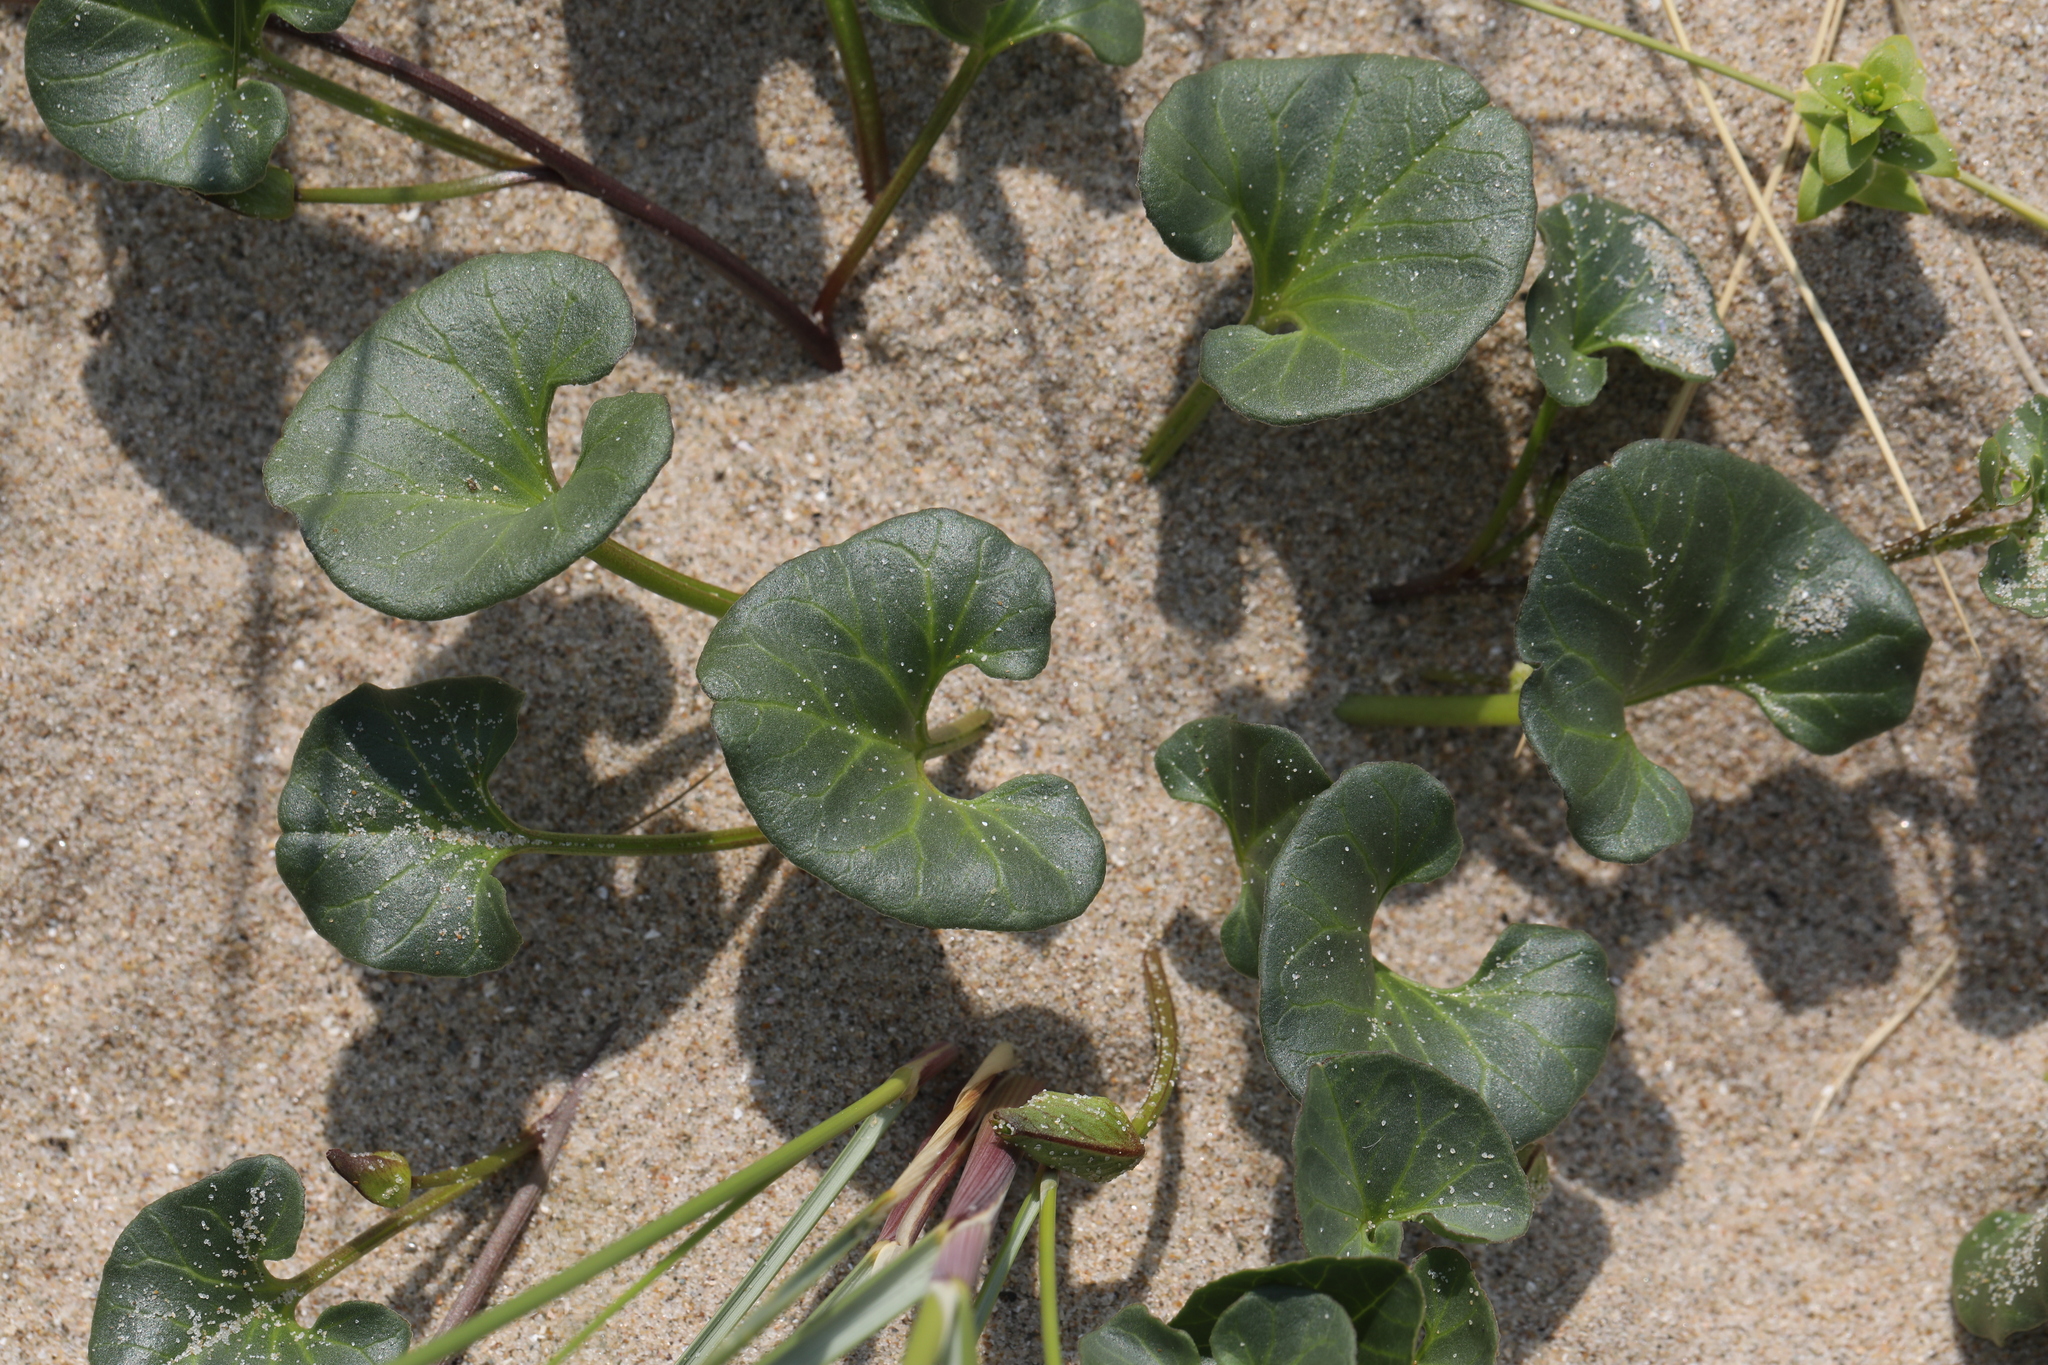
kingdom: Plantae
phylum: Tracheophyta
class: Magnoliopsida
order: Solanales
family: Convolvulaceae
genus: Calystegia
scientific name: Calystegia soldanella
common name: Sea bindweed
